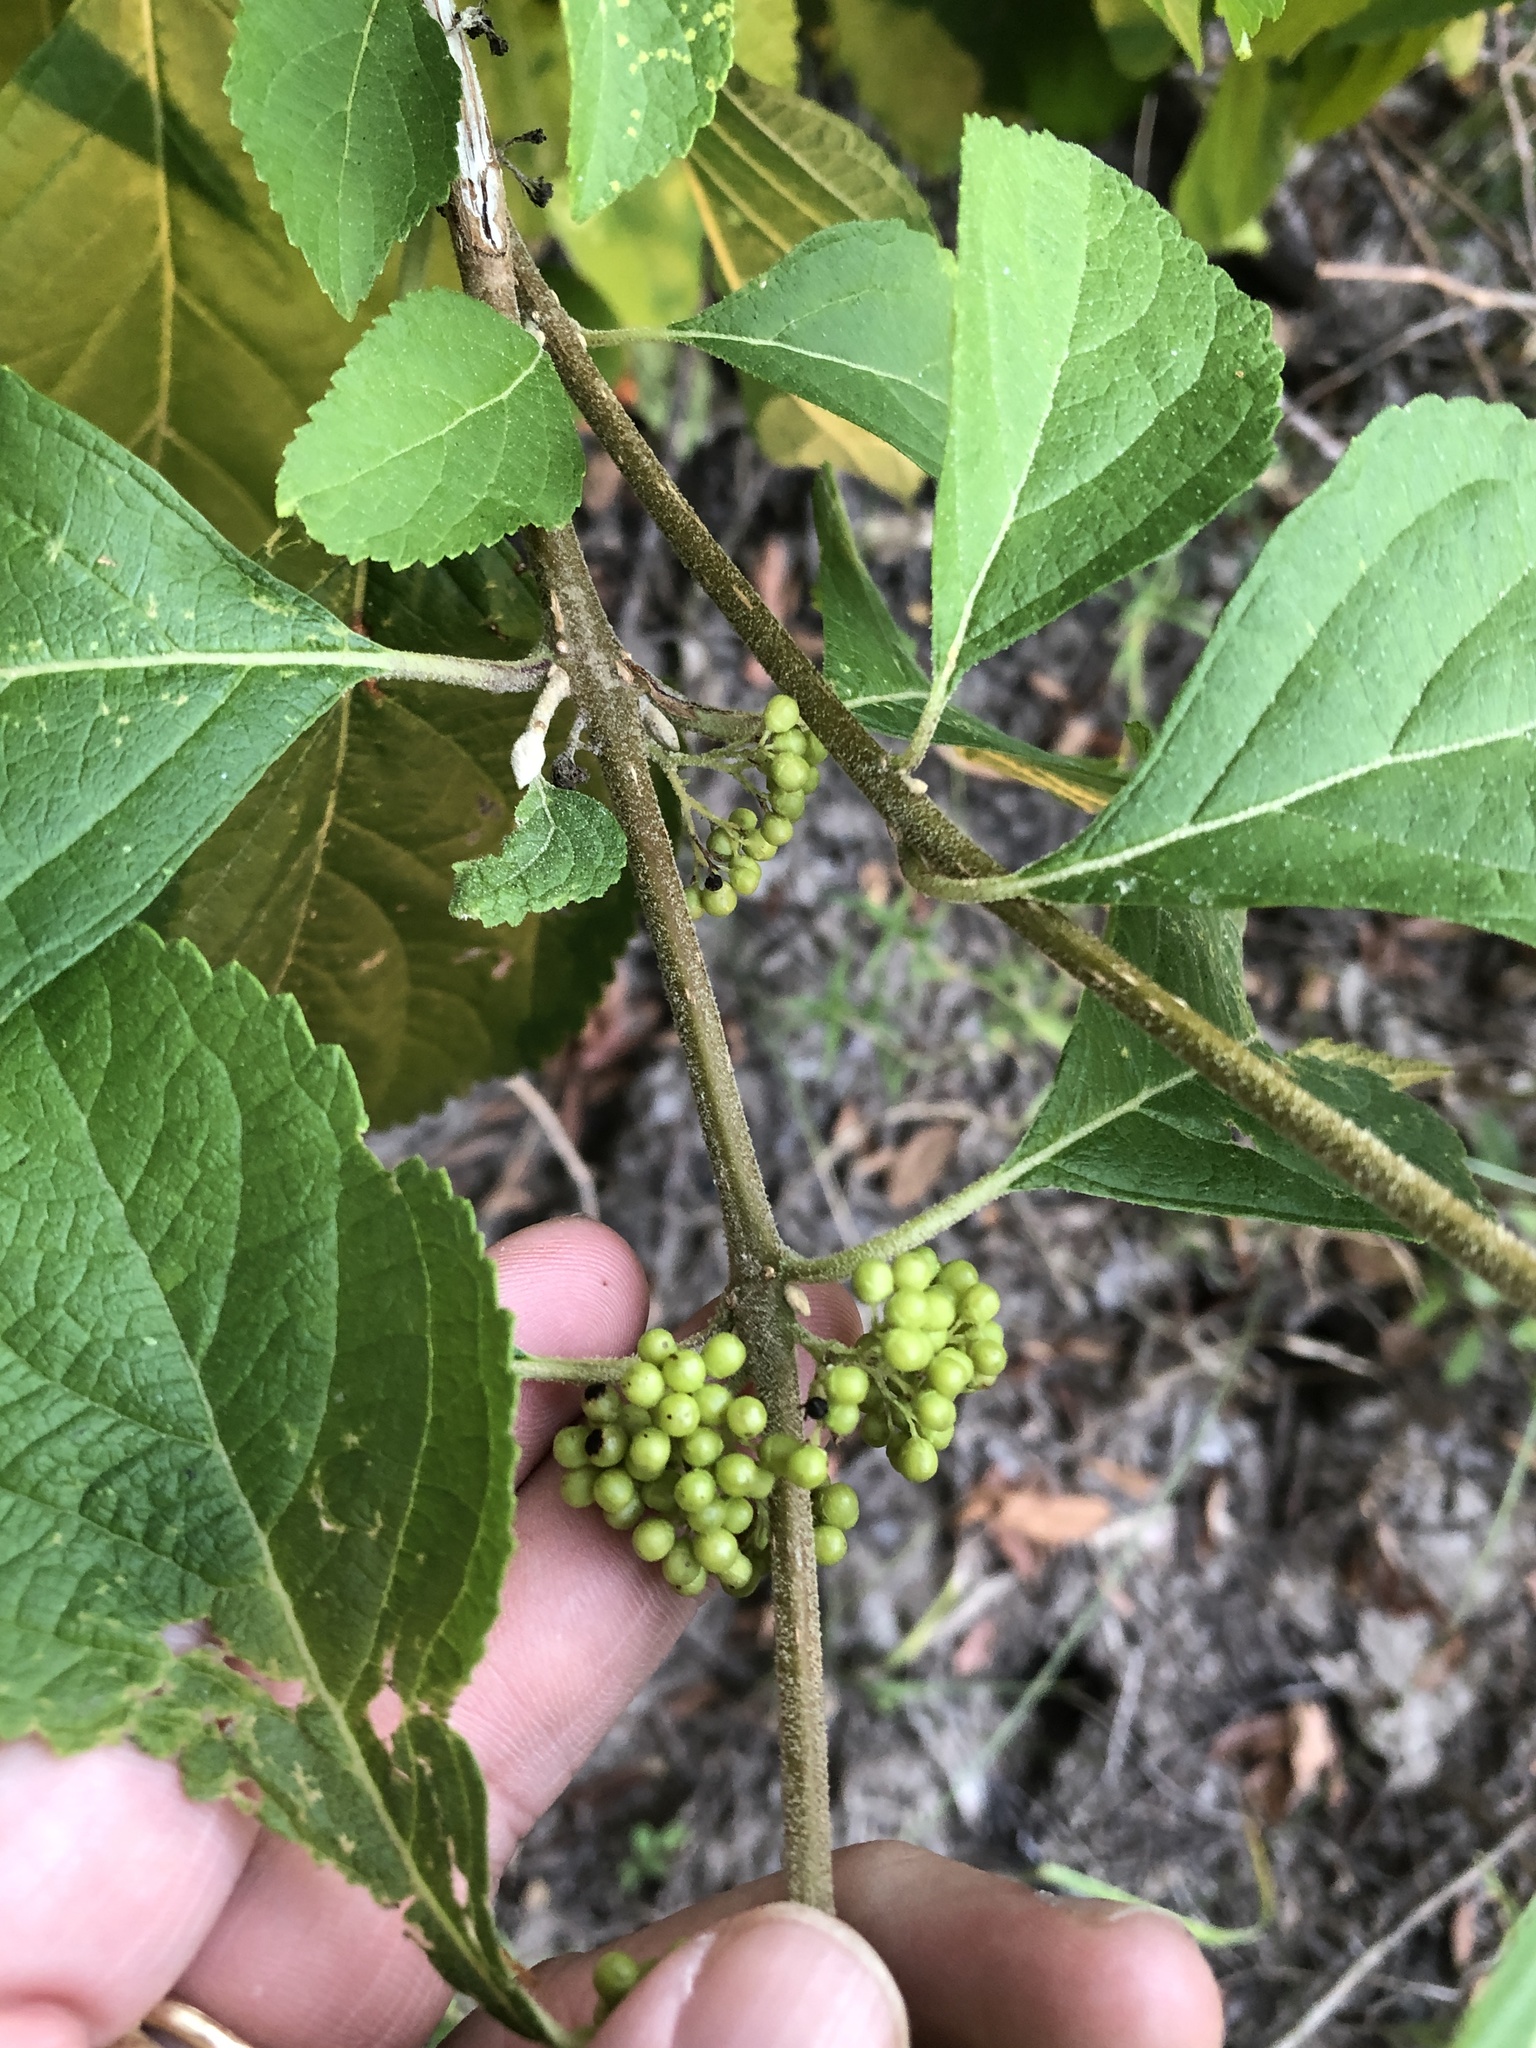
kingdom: Plantae
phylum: Tracheophyta
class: Magnoliopsida
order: Lamiales
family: Lamiaceae
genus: Callicarpa
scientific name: Callicarpa americana
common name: American beautyberry
